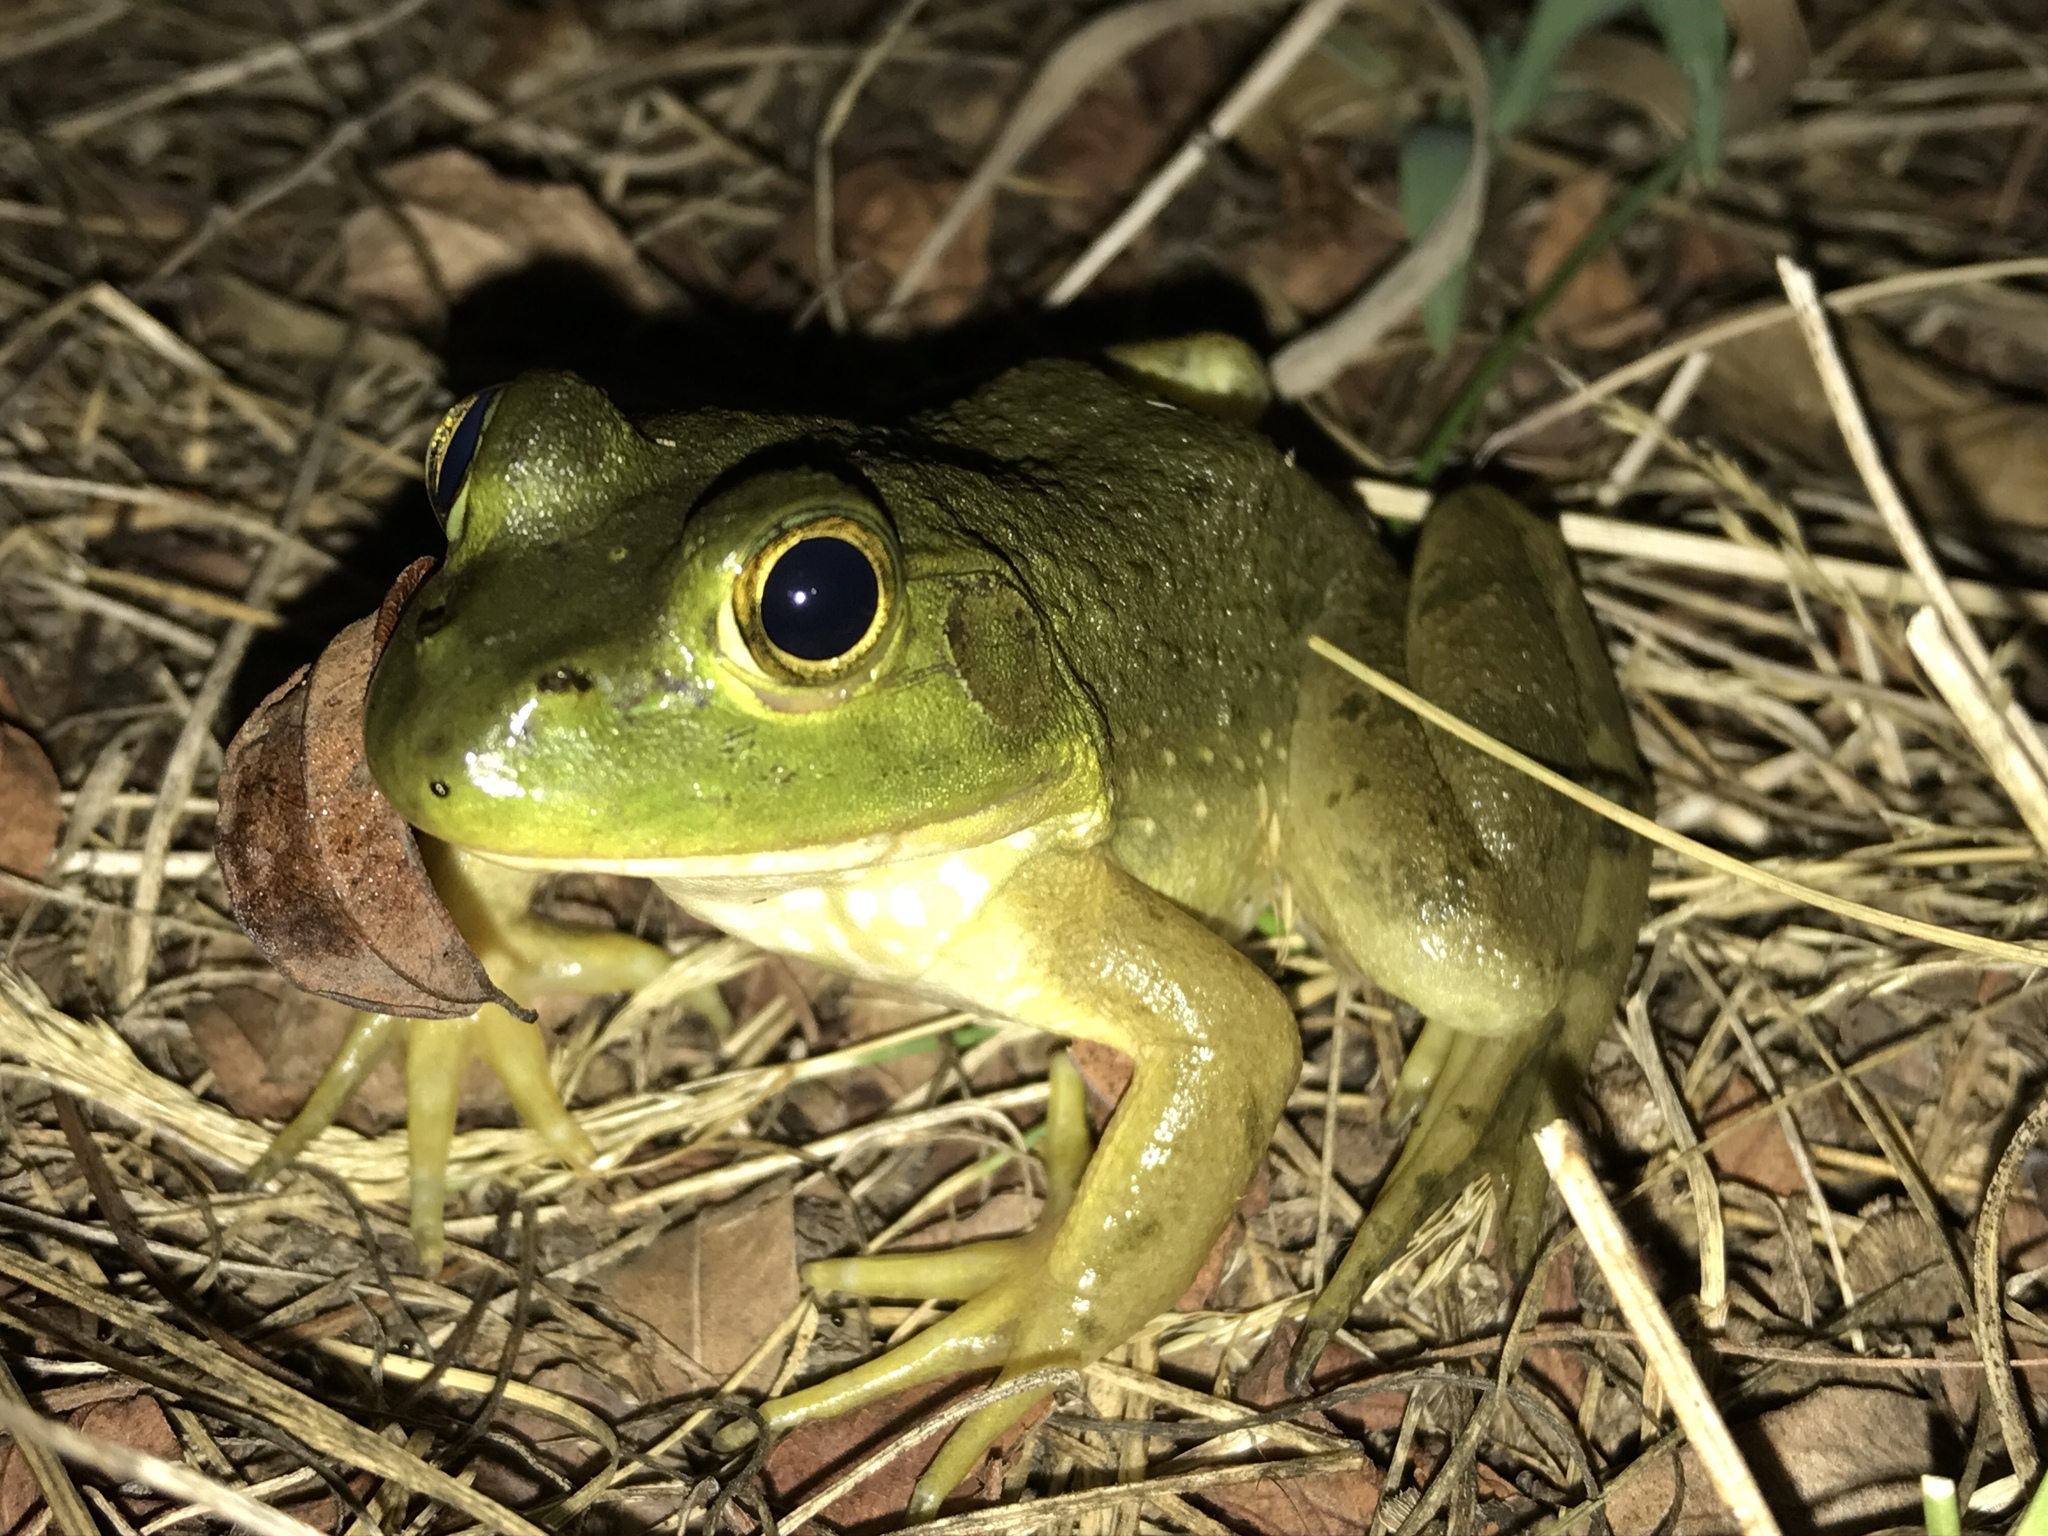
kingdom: Animalia
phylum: Chordata
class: Amphibia
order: Anura
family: Ranidae
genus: Lithobates
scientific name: Lithobates catesbeianus
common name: American bullfrog
